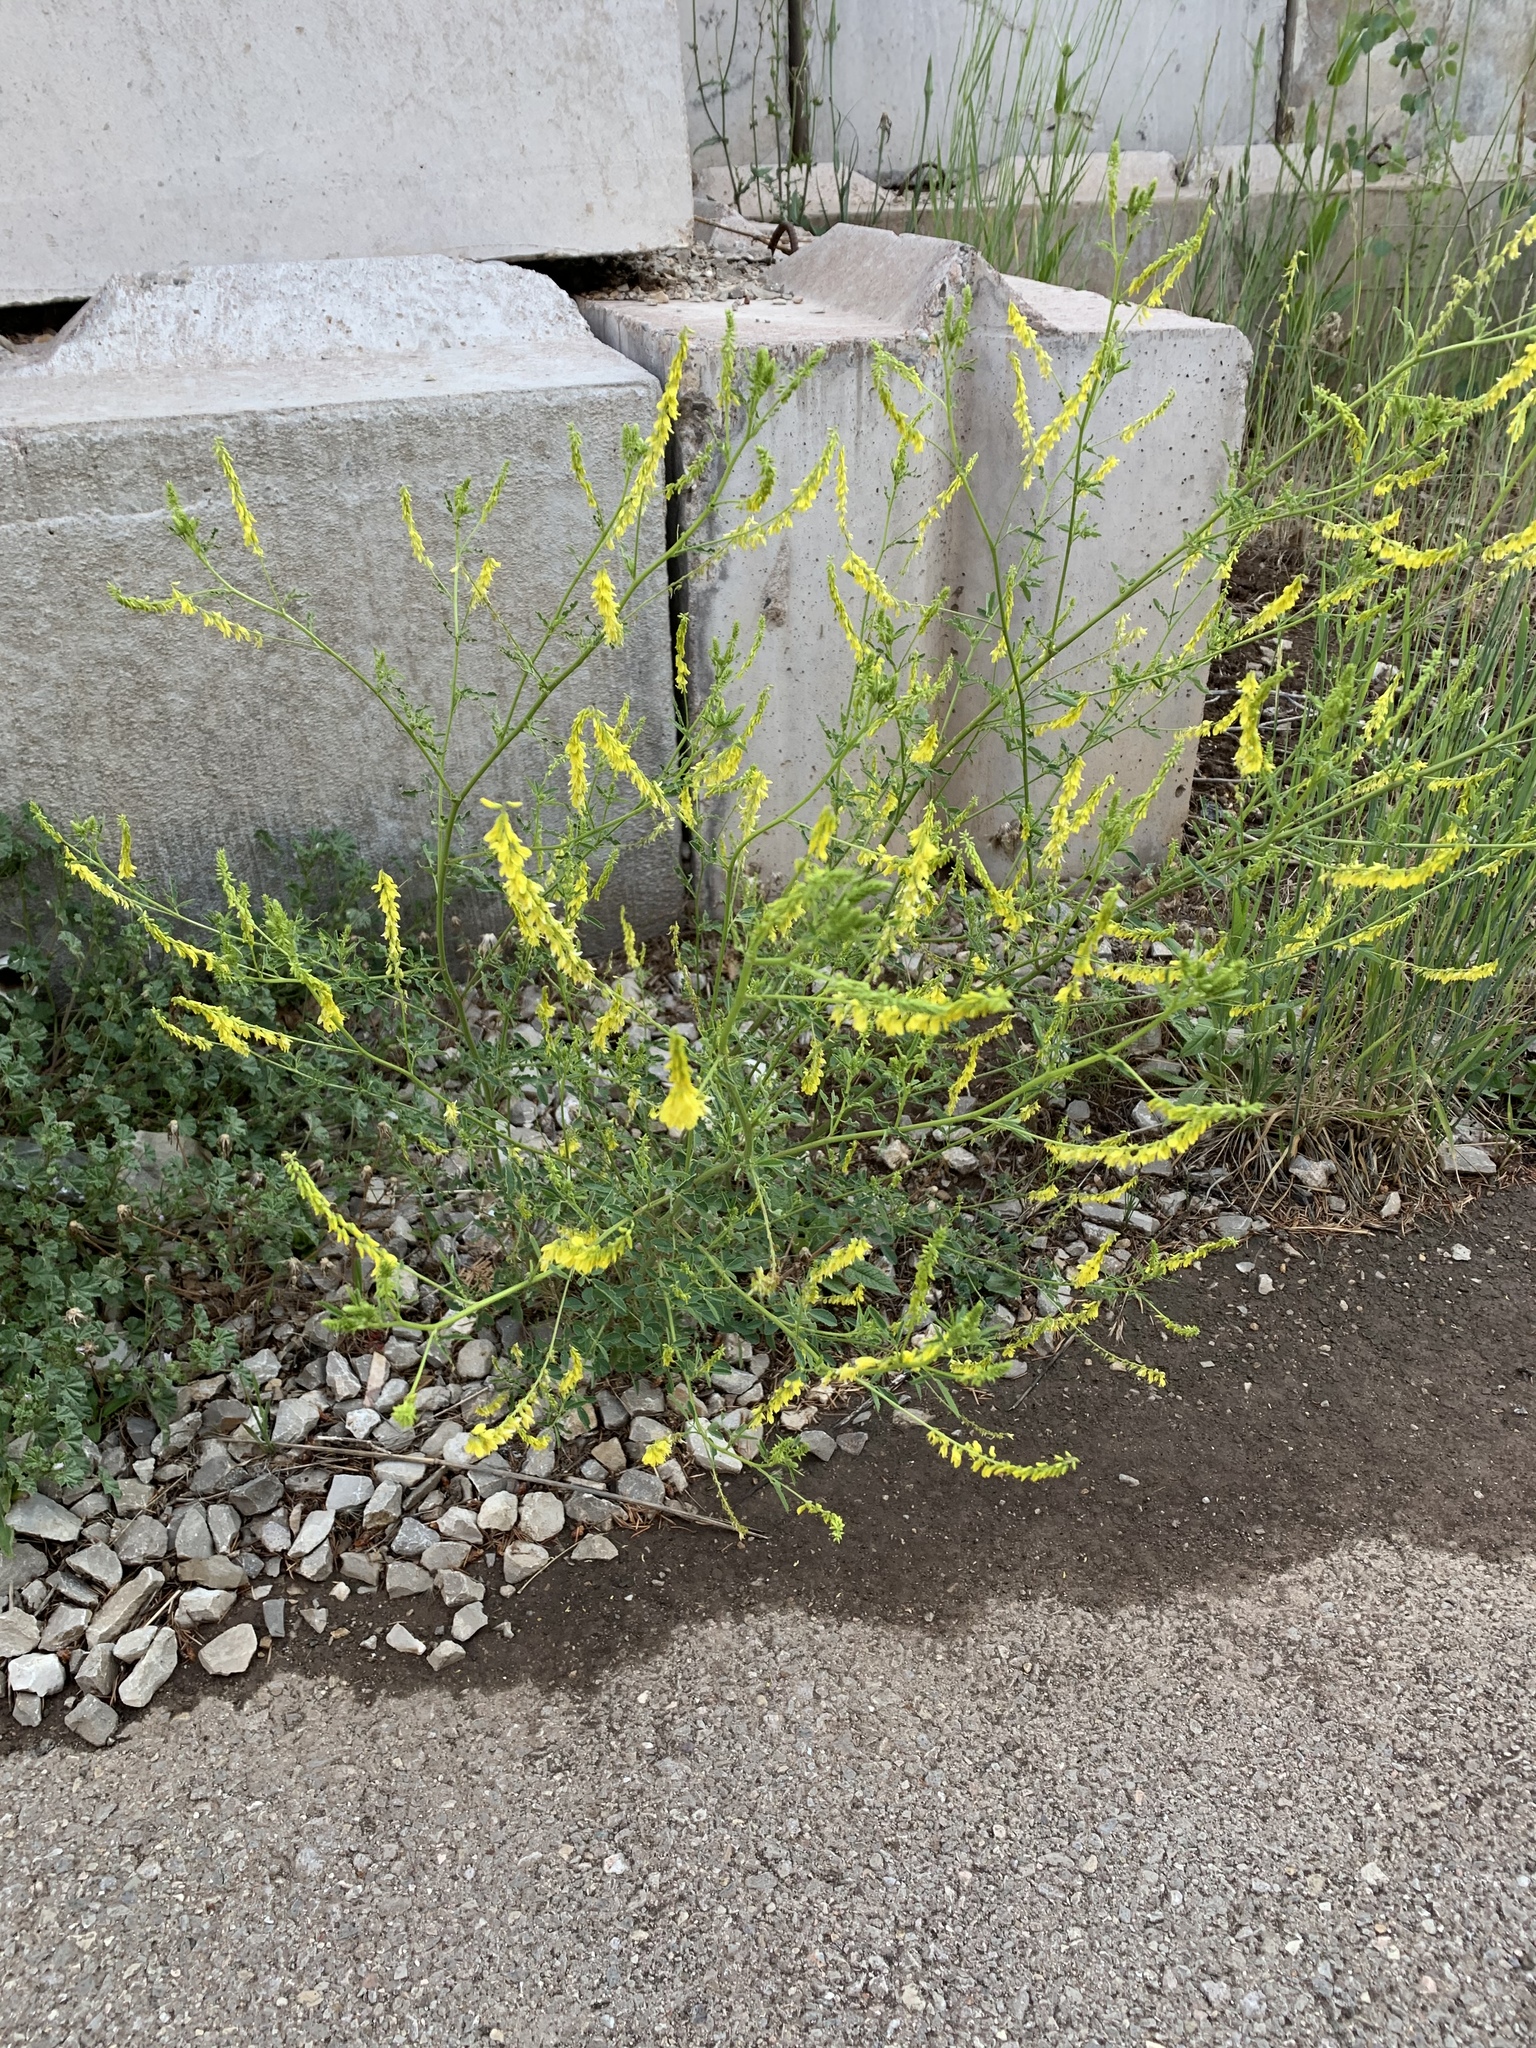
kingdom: Plantae
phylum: Tracheophyta
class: Magnoliopsida
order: Fabales
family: Fabaceae
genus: Melilotus
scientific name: Melilotus officinalis
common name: Sweetclover
